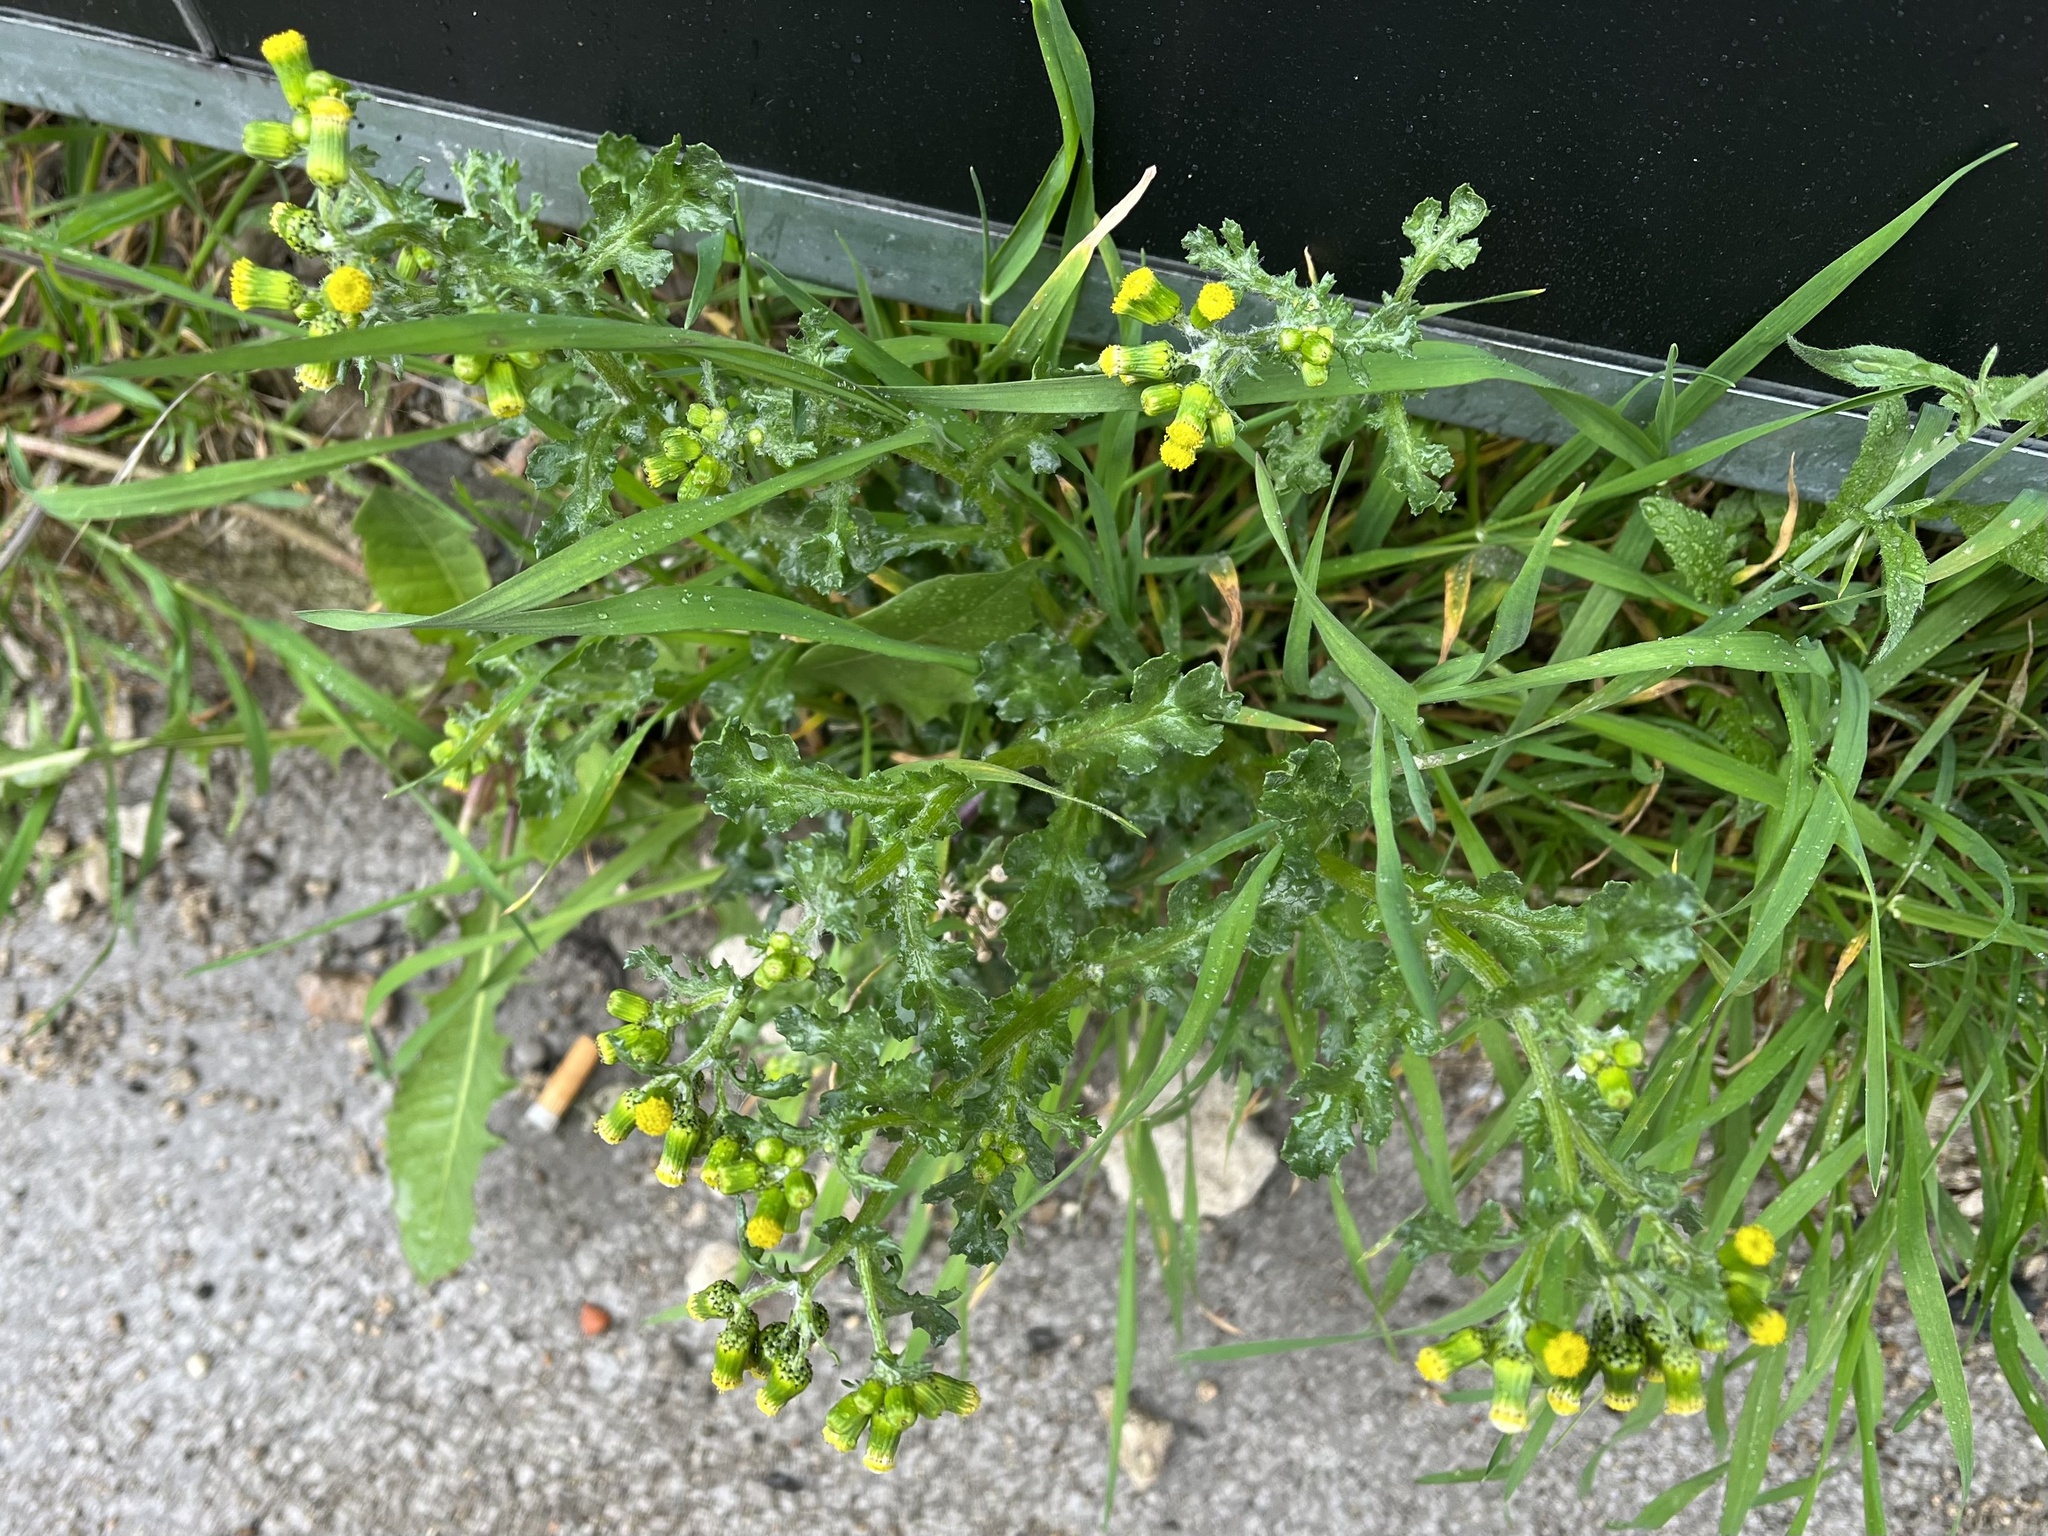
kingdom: Plantae
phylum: Tracheophyta
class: Magnoliopsida
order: Asterales
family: Asteraceae
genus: Senecio
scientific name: Senecio vulgaris
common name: Old-man-in-the-spring
